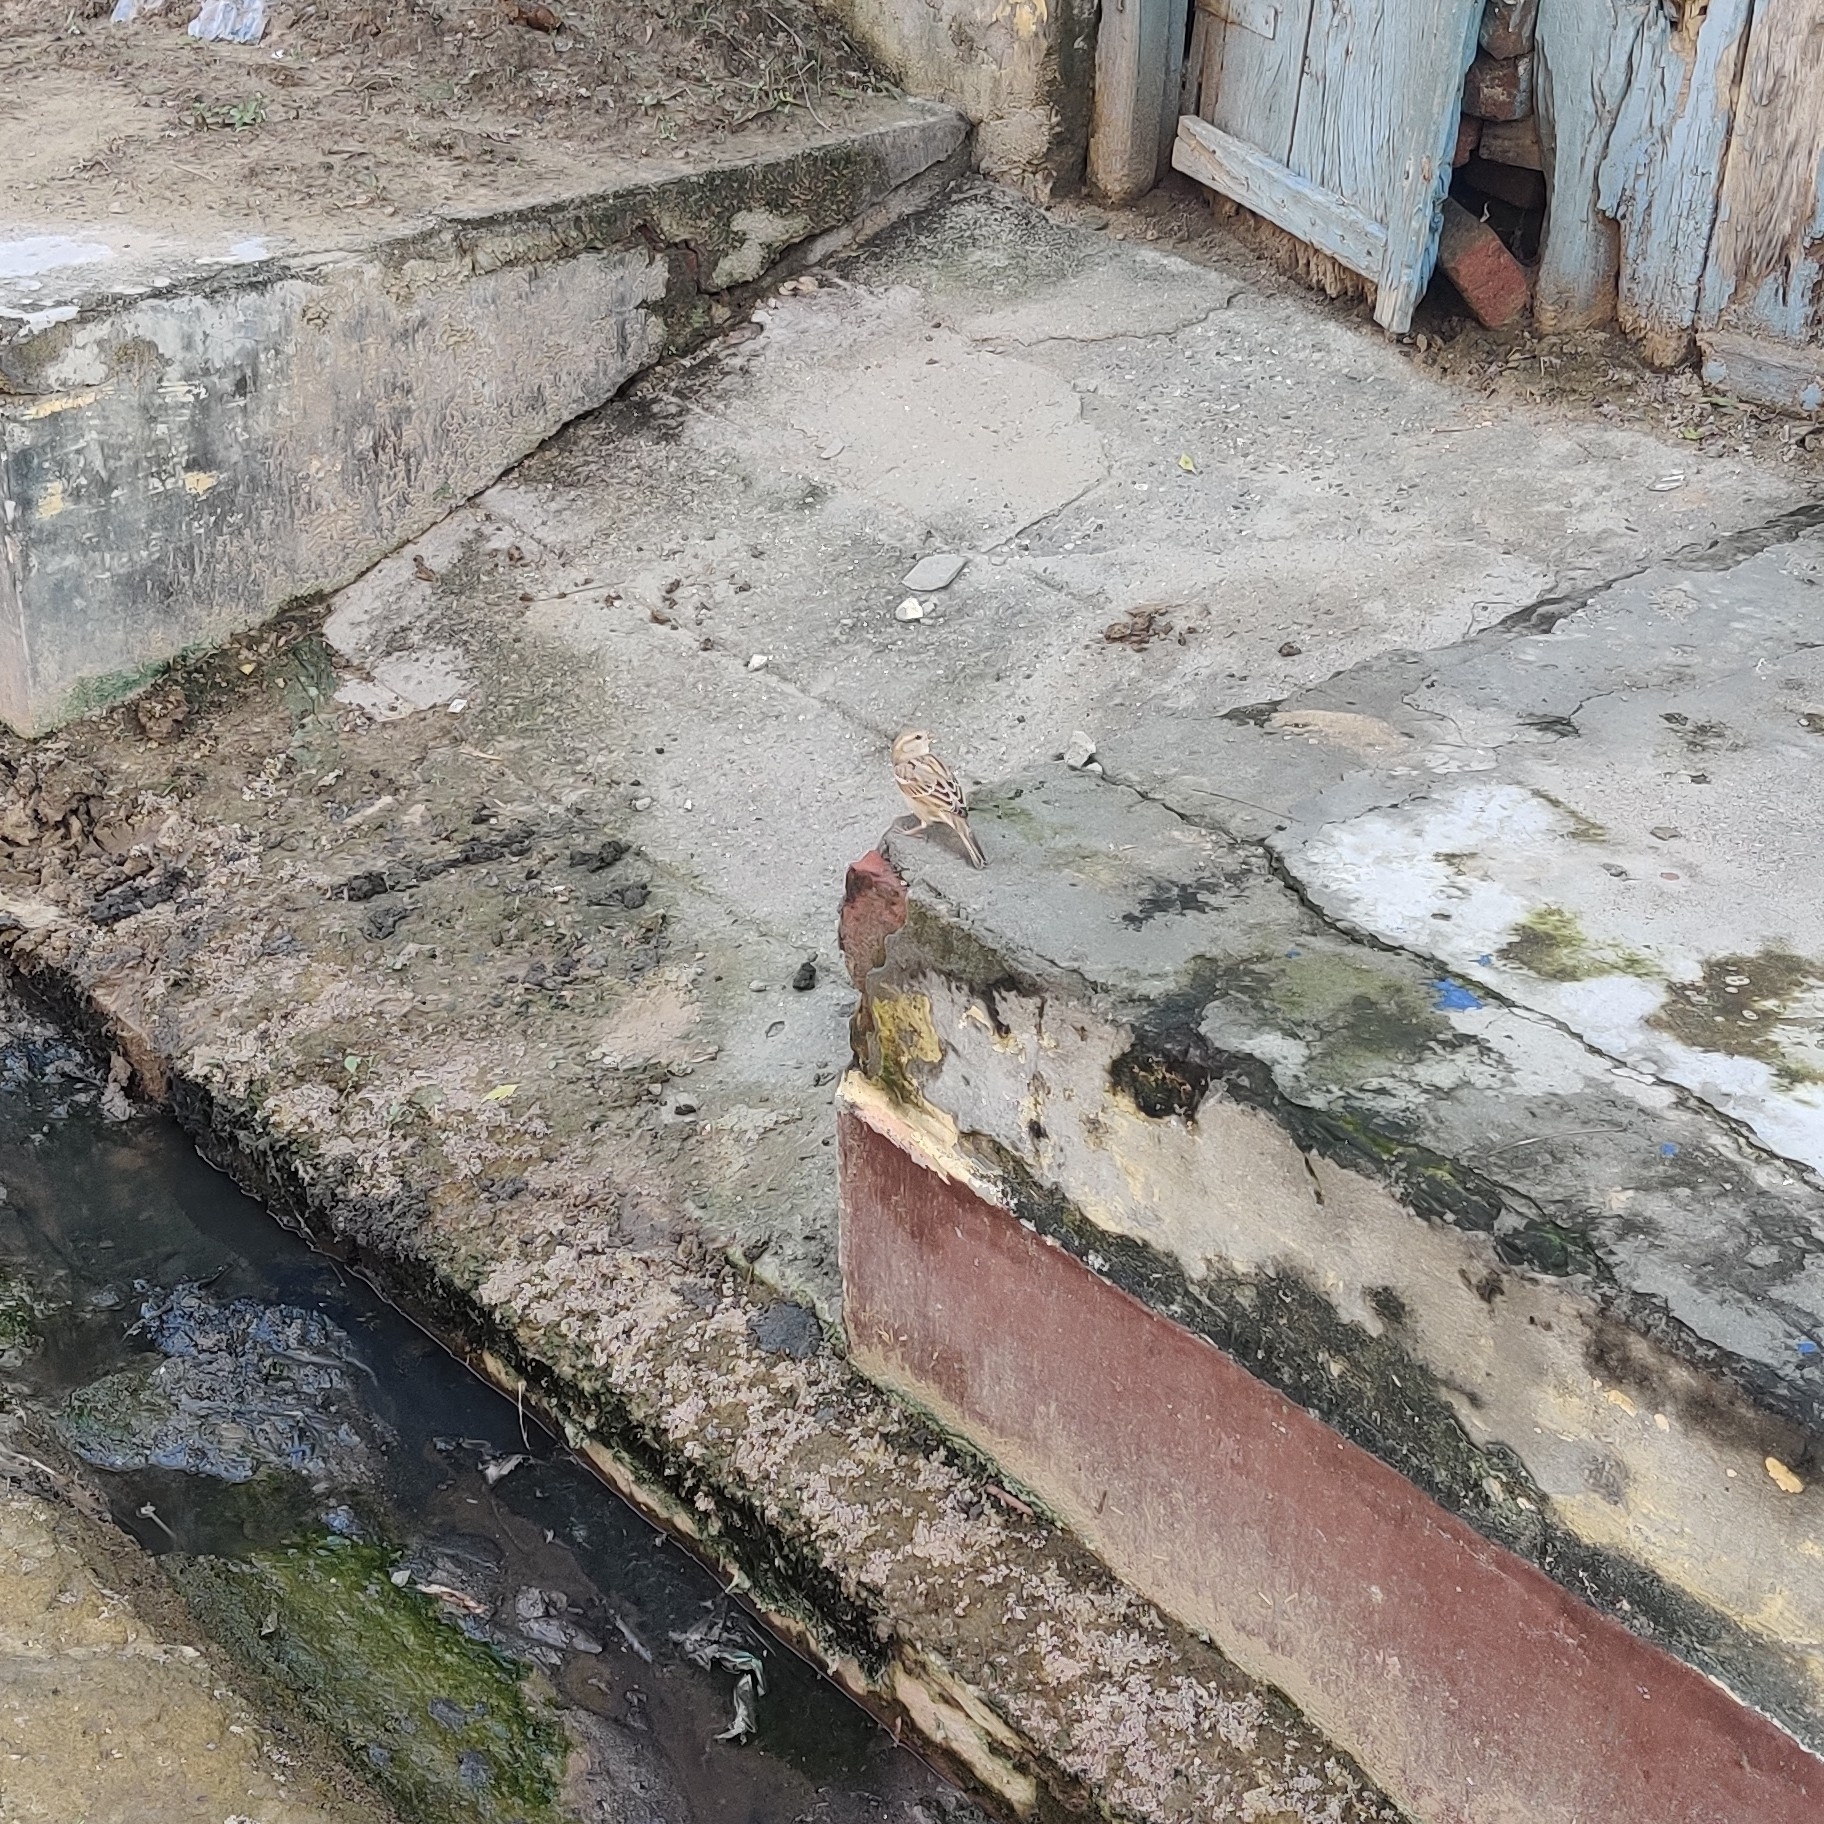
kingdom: Animalia
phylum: Chordata
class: Aves
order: Passeriformes
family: Passeridae
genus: Passer
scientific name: Passer domesticus
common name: House sparrow
